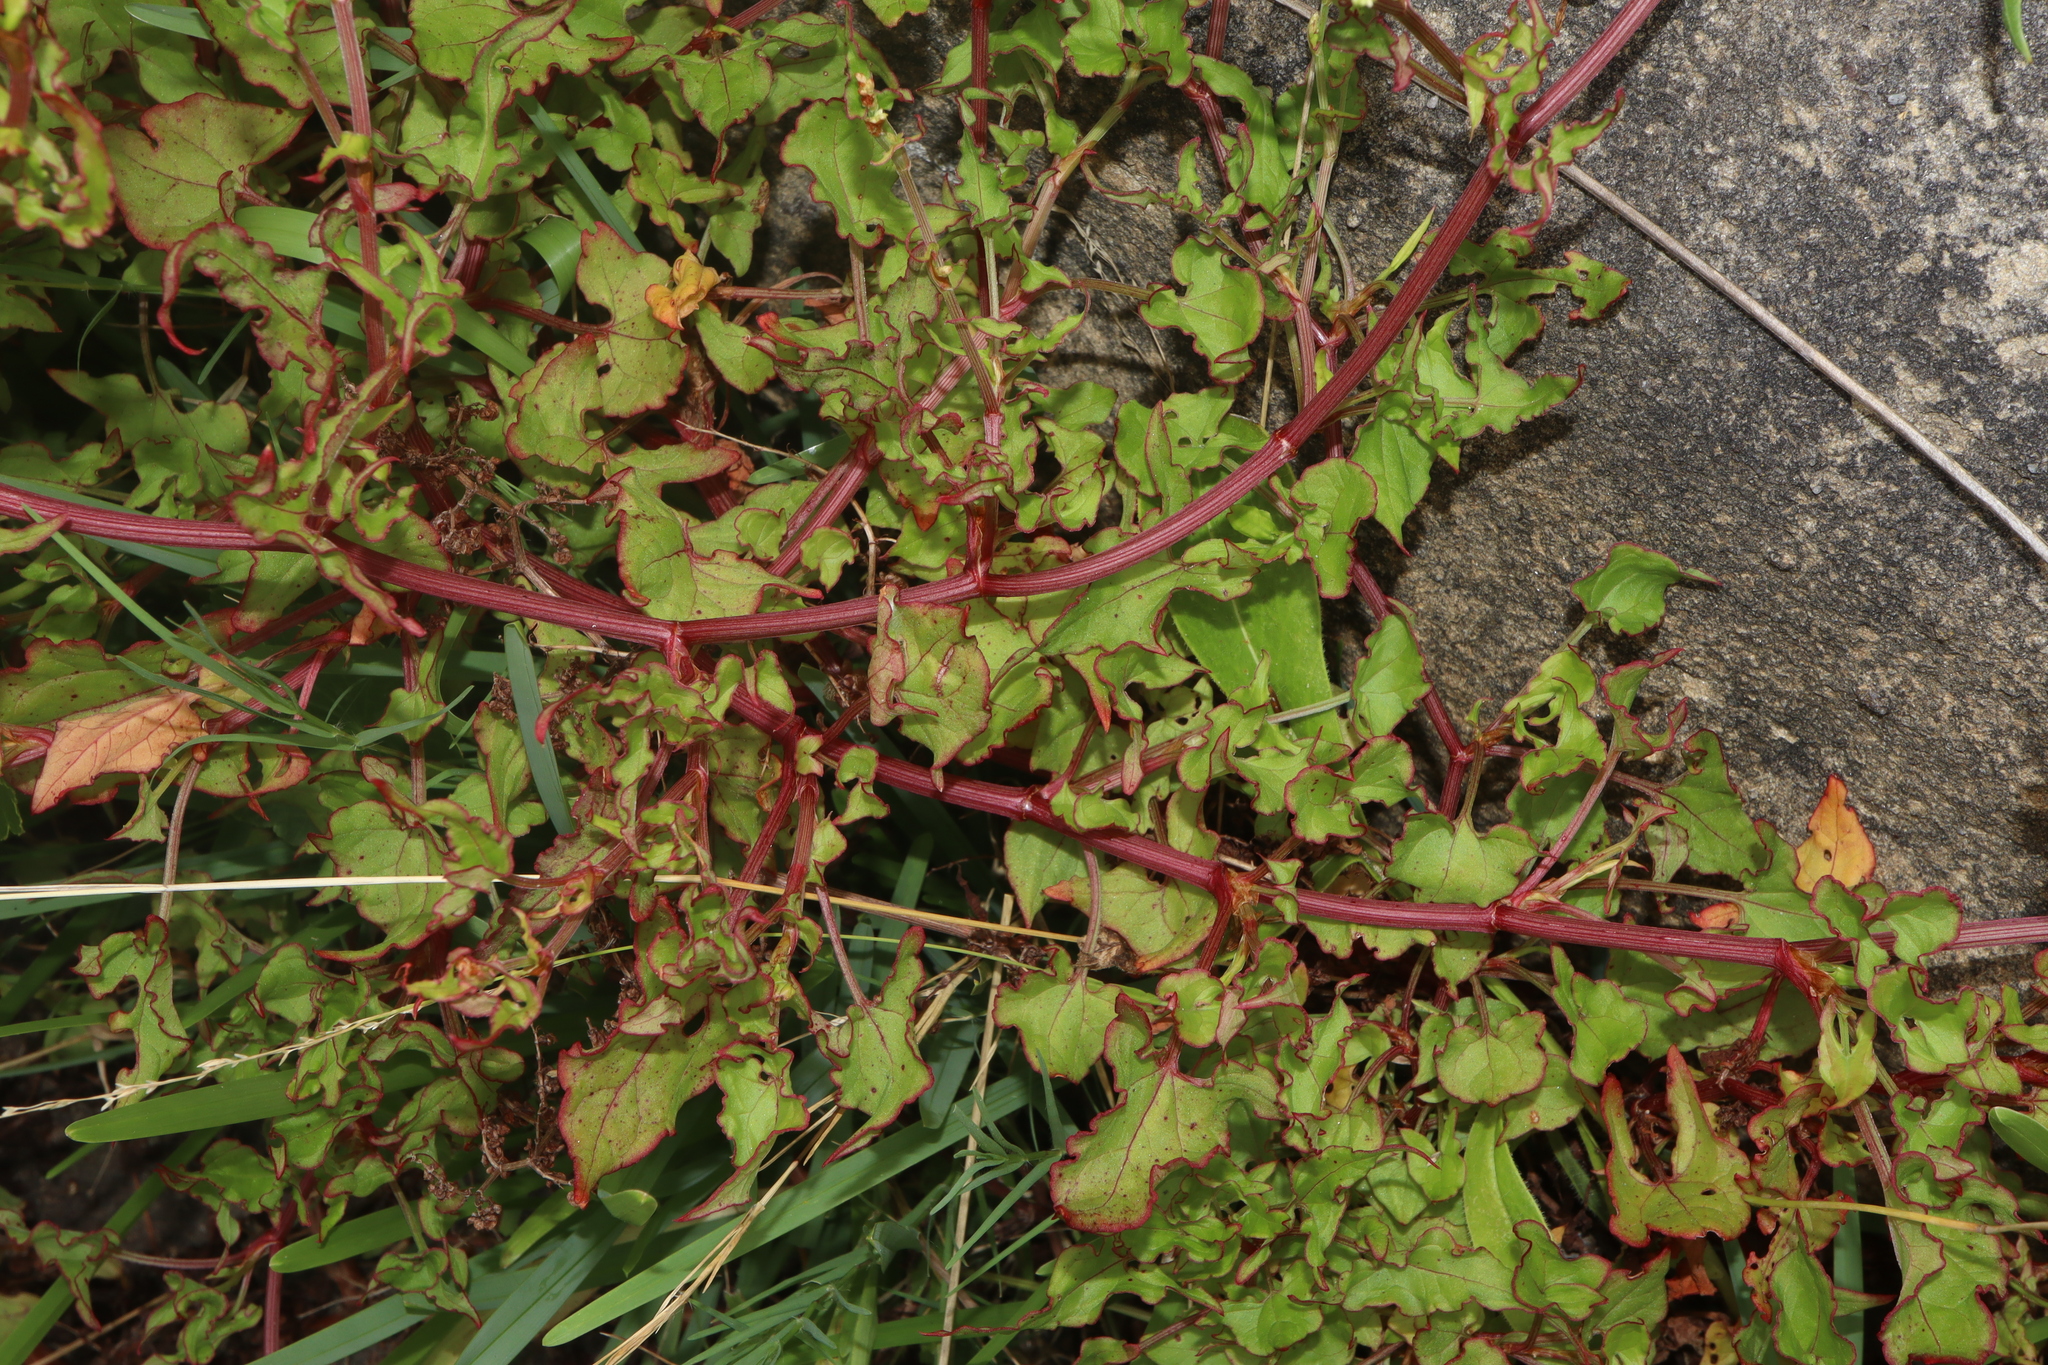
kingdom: Plantae
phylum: Tracheophyta
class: Magnoliopsida
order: Caryophyllales
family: Polygonaceae
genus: Rumex
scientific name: Rumex sagittatus
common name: Climbing dock
